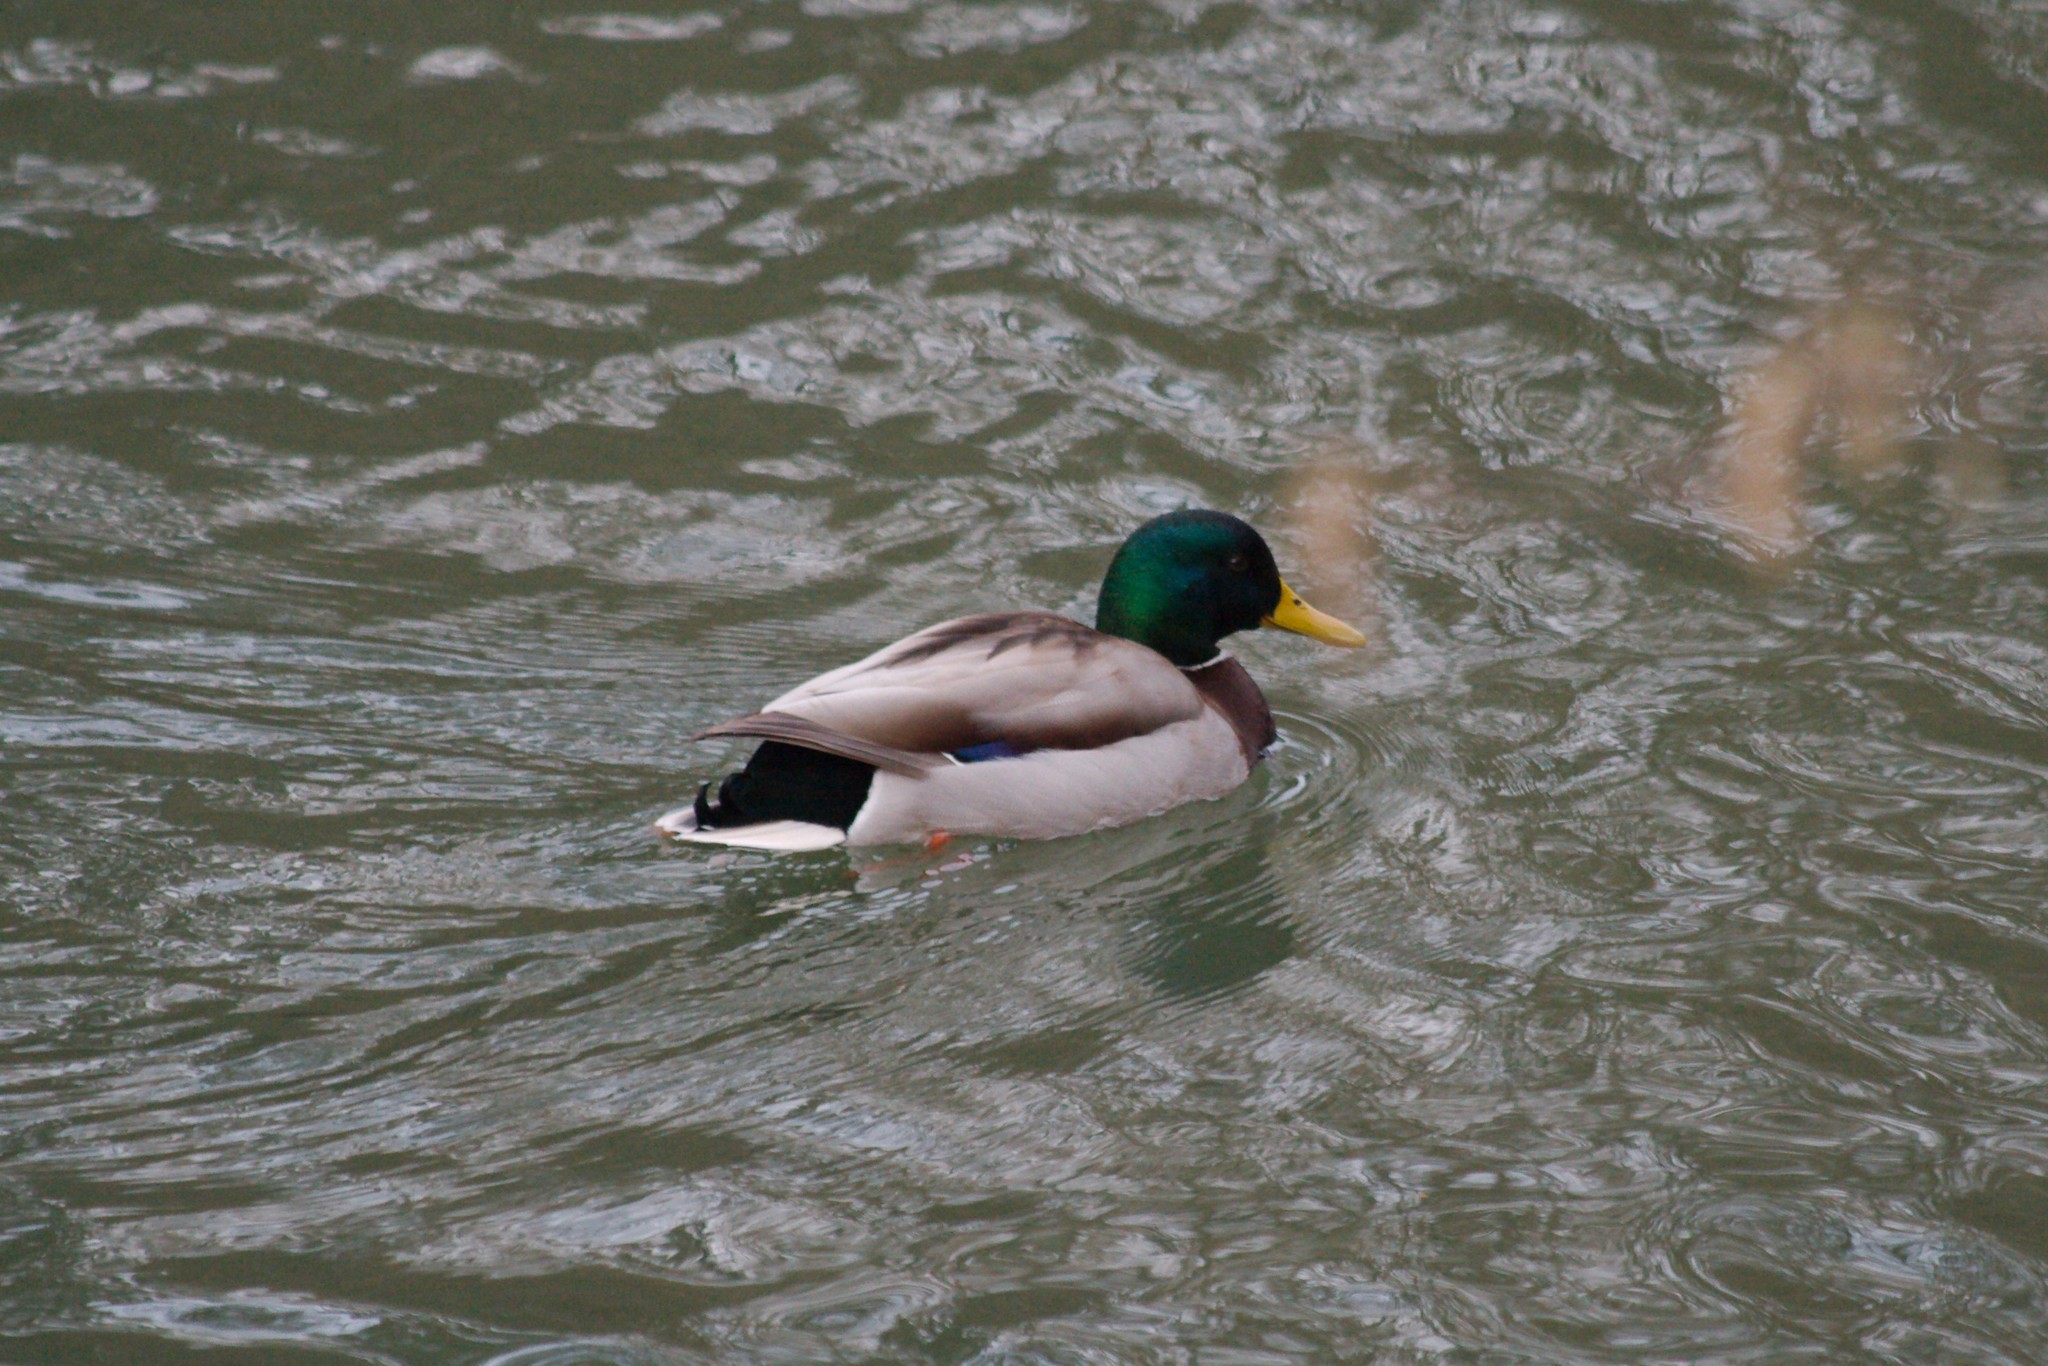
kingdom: Animalia
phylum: Chordata
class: Aves
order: Anseriformes
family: Anatidae
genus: Anas
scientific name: Anas platyrhynchos
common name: Mallard
